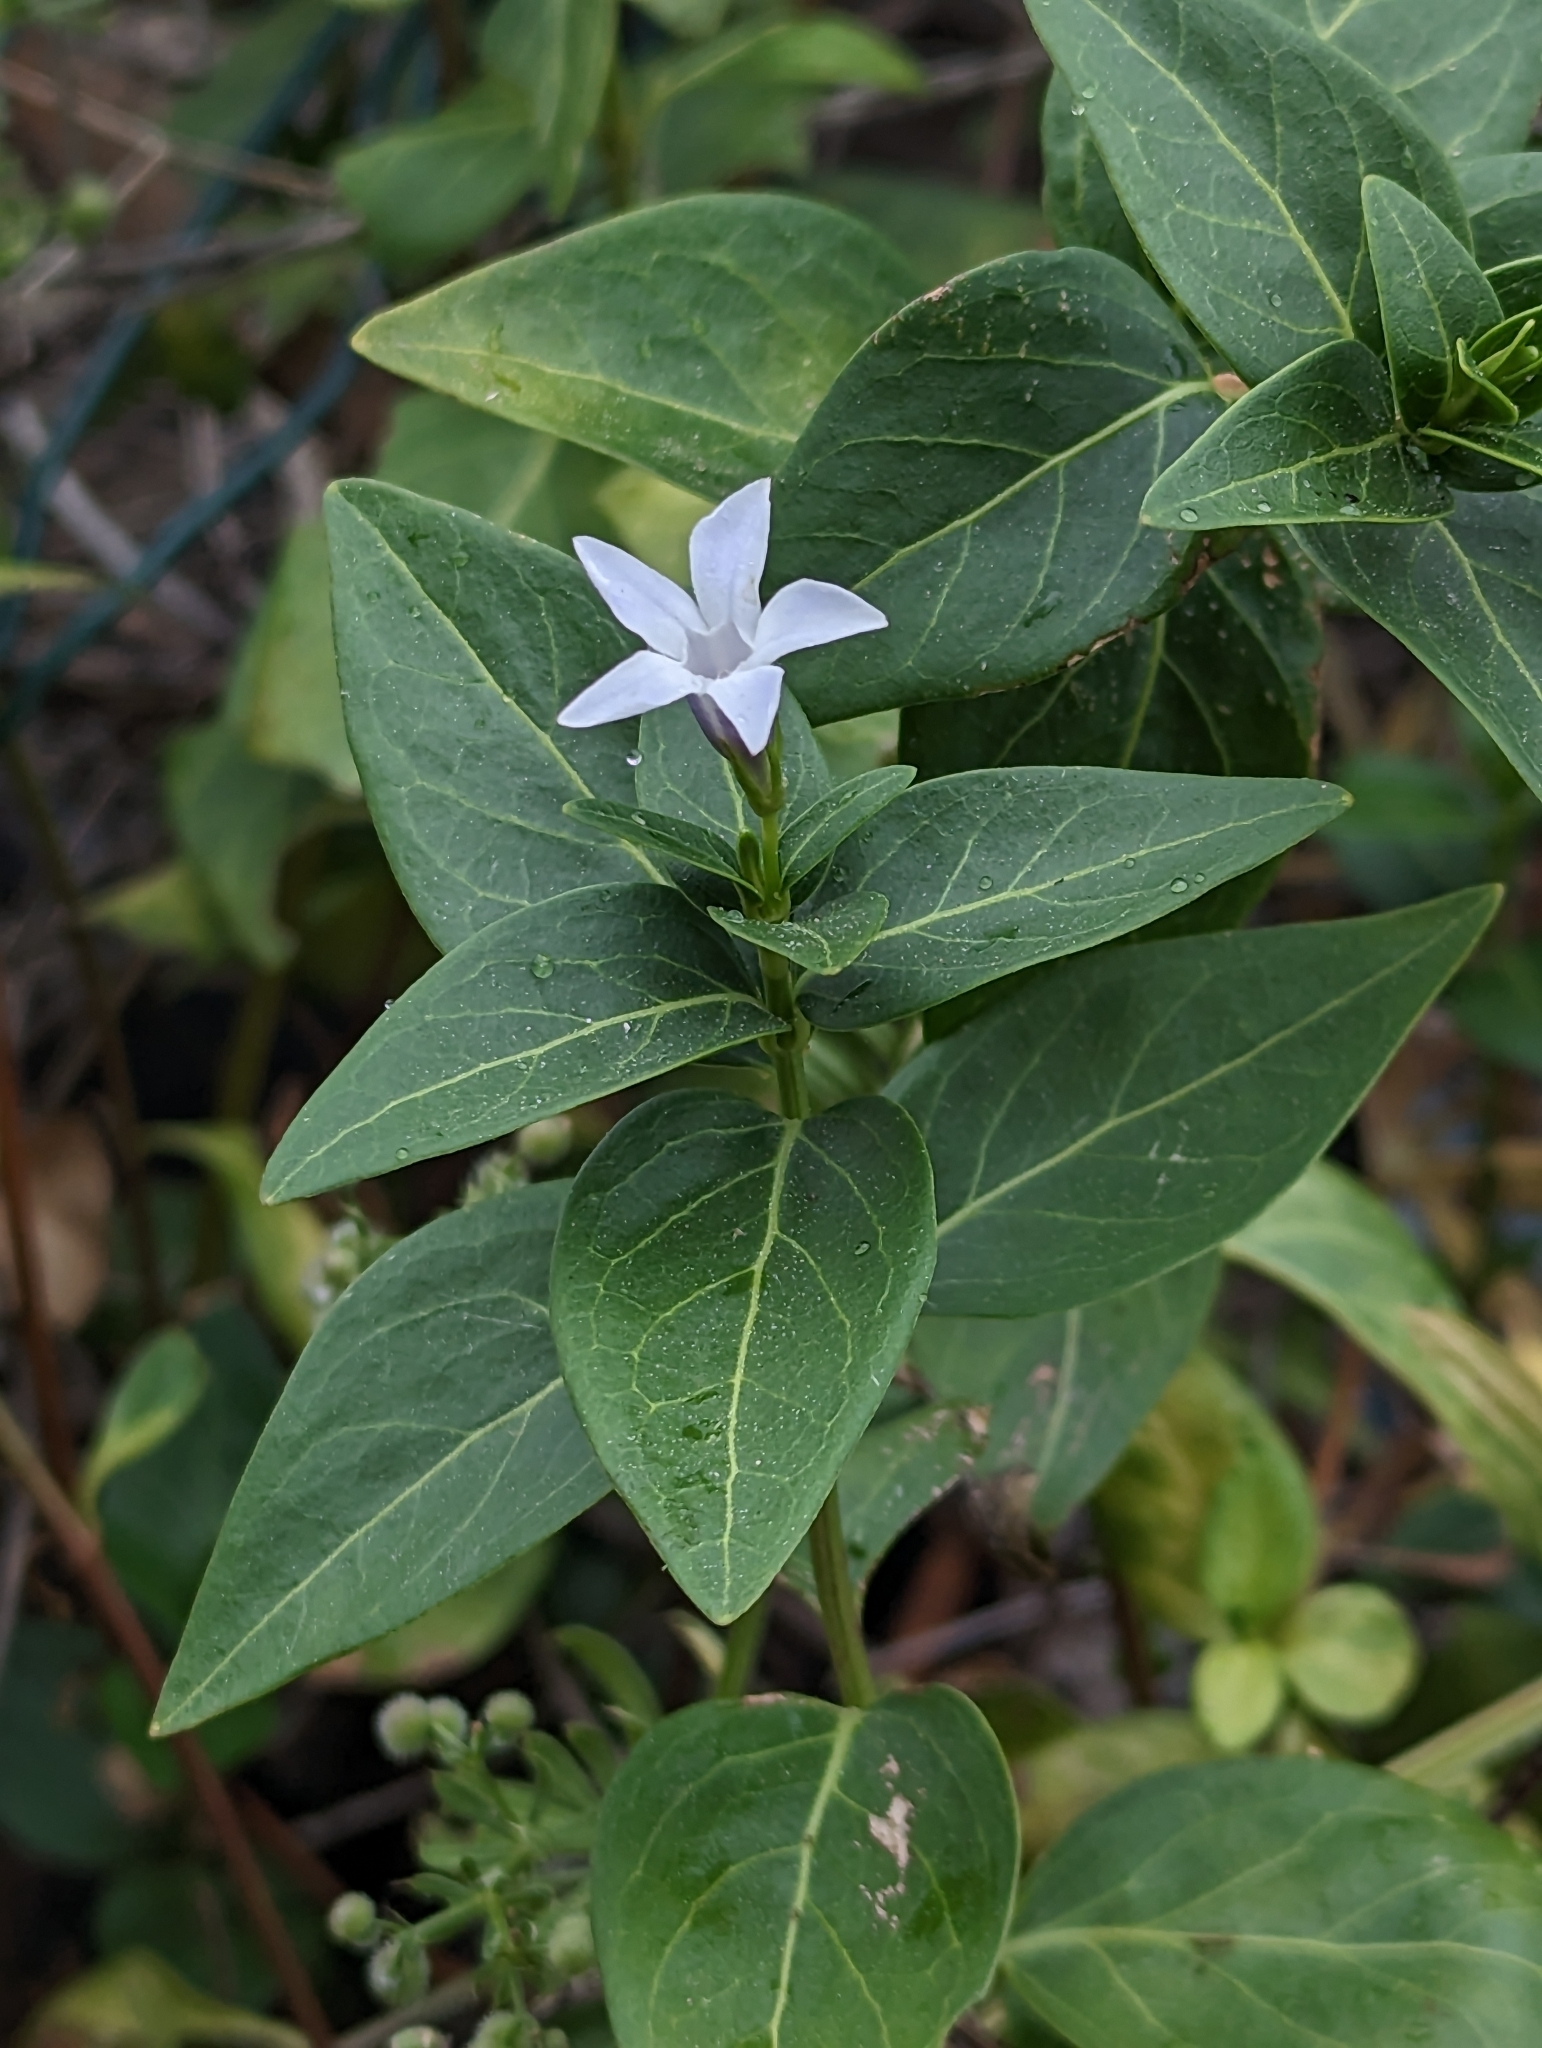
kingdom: Plantae
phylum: Tracheophyta
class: Magnoliopsida
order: Gentianales
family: Apocynaceae
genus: Vinca
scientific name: Vinca difformis
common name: Intermediate periwinkle
